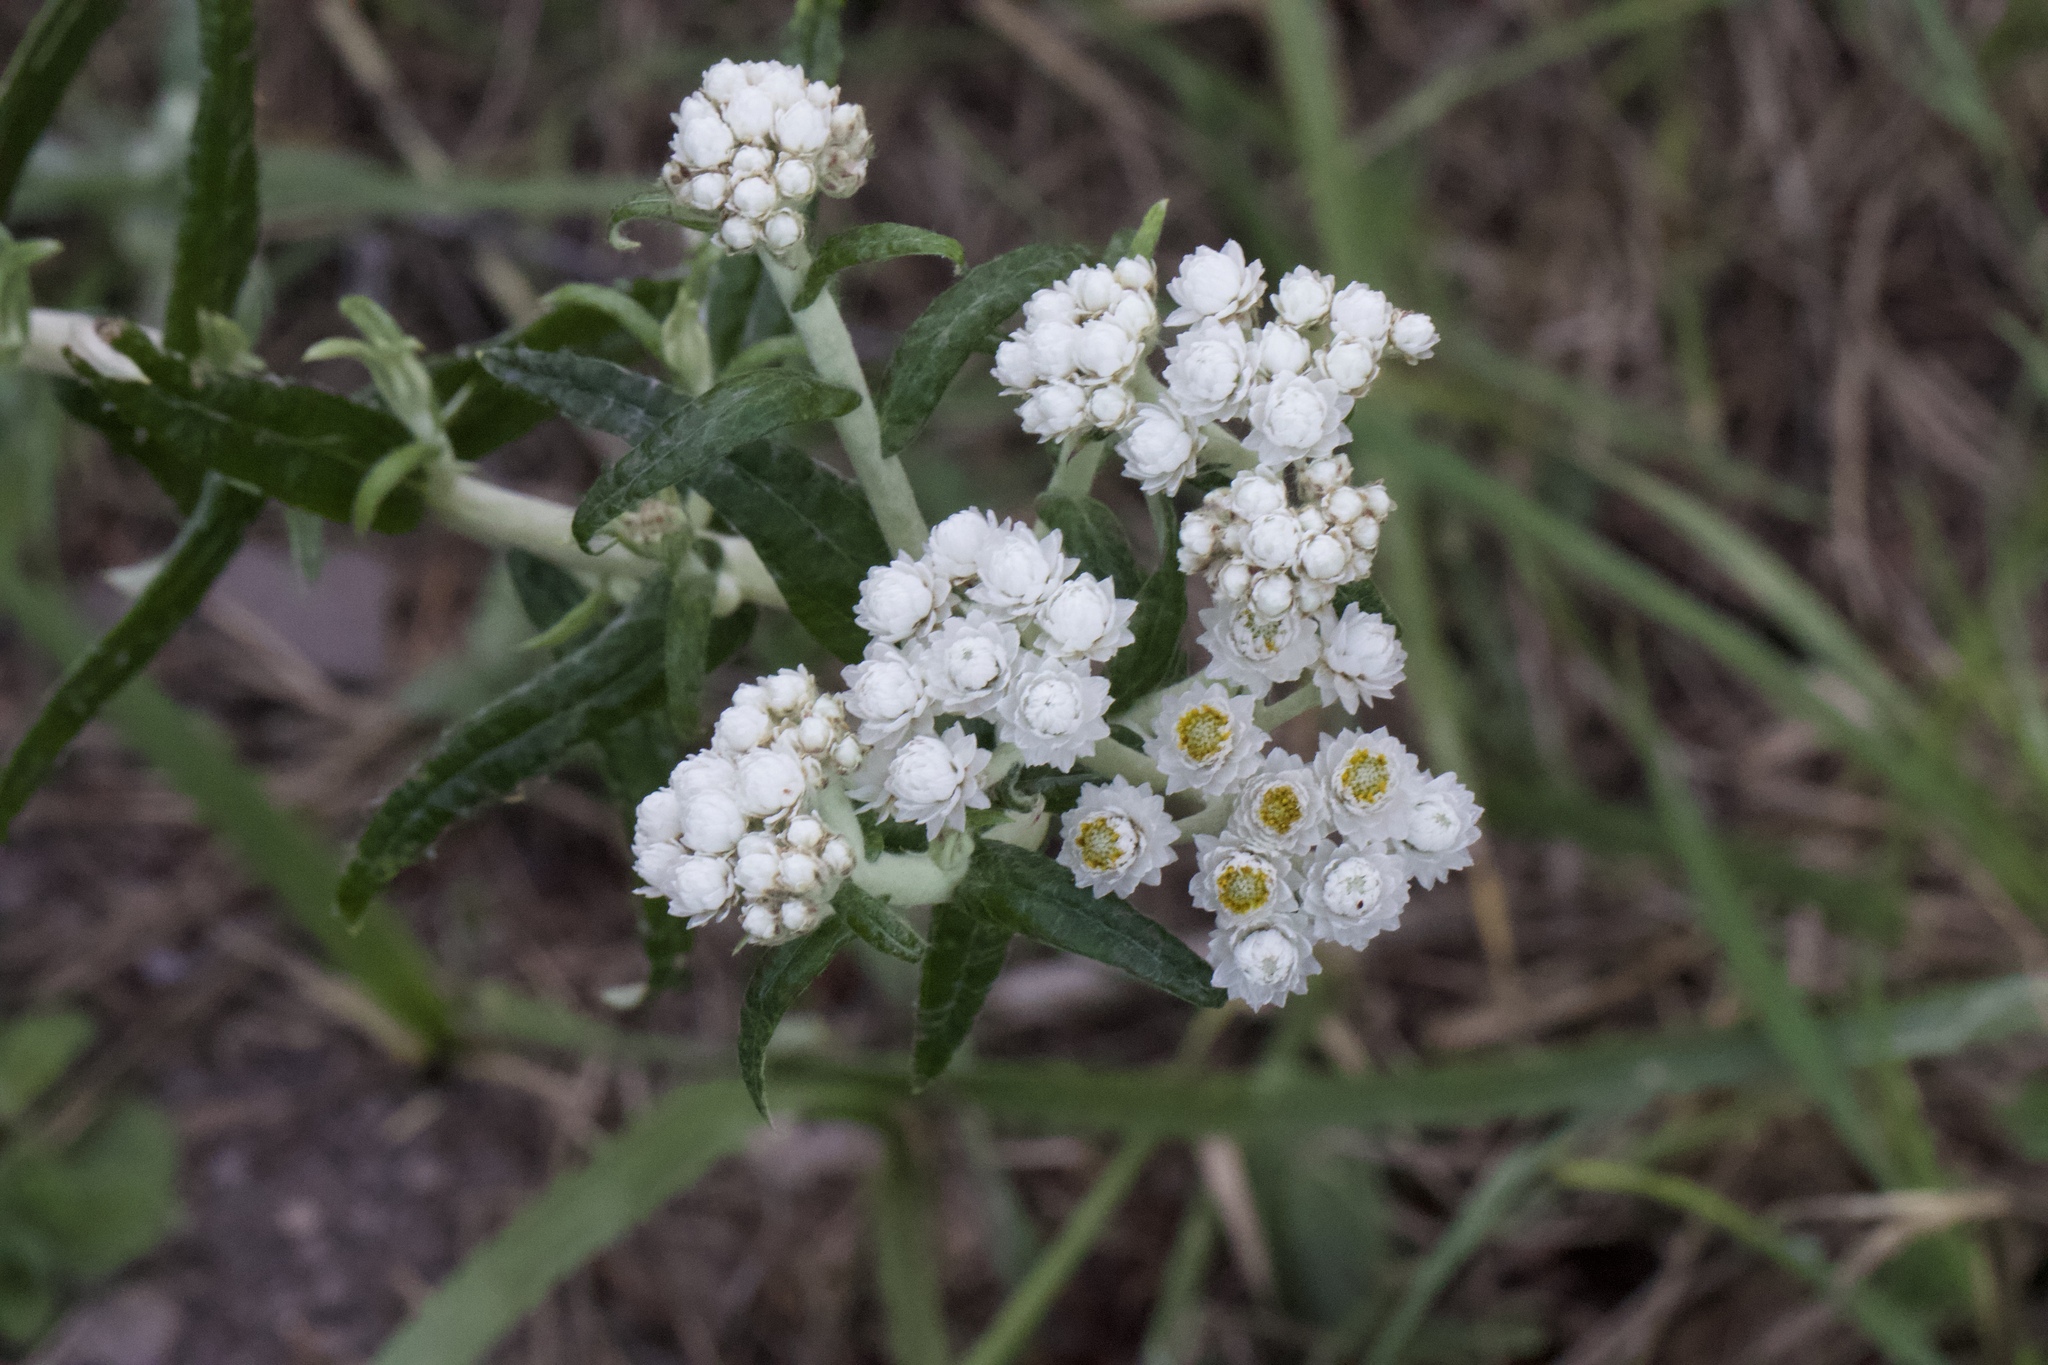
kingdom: Plantae
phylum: Tracheophyta
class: Magnoliopsida
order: Asterales
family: Asteraceae
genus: Anaphalis
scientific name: Anaphalis margaritacea
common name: Pearly everlasting
